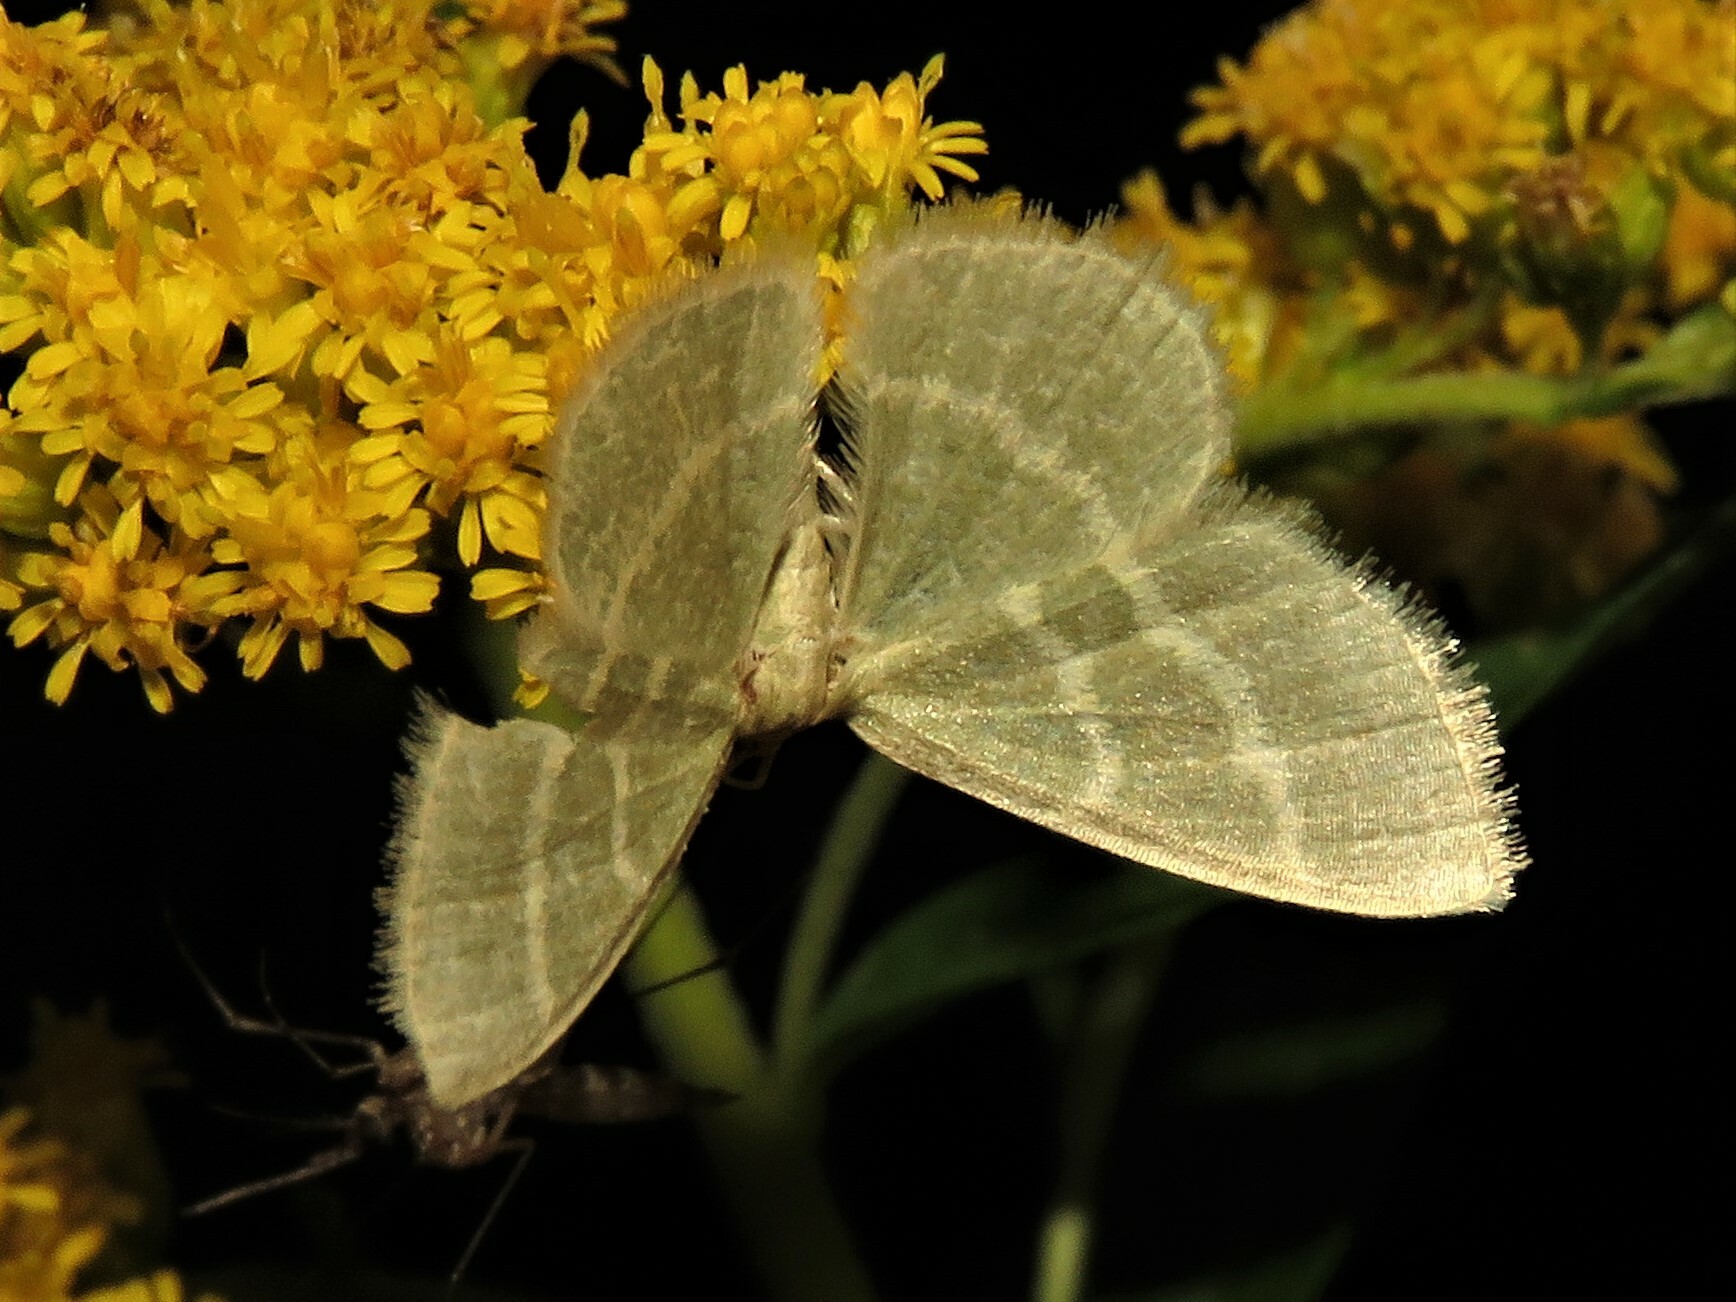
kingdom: Animalia
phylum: Arthropoda
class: Insecta
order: Lepidoptera
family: Geometridae
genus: Chlorochlamys
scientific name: Chlorochlamys chloroleucaria
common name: Blackberry looper
